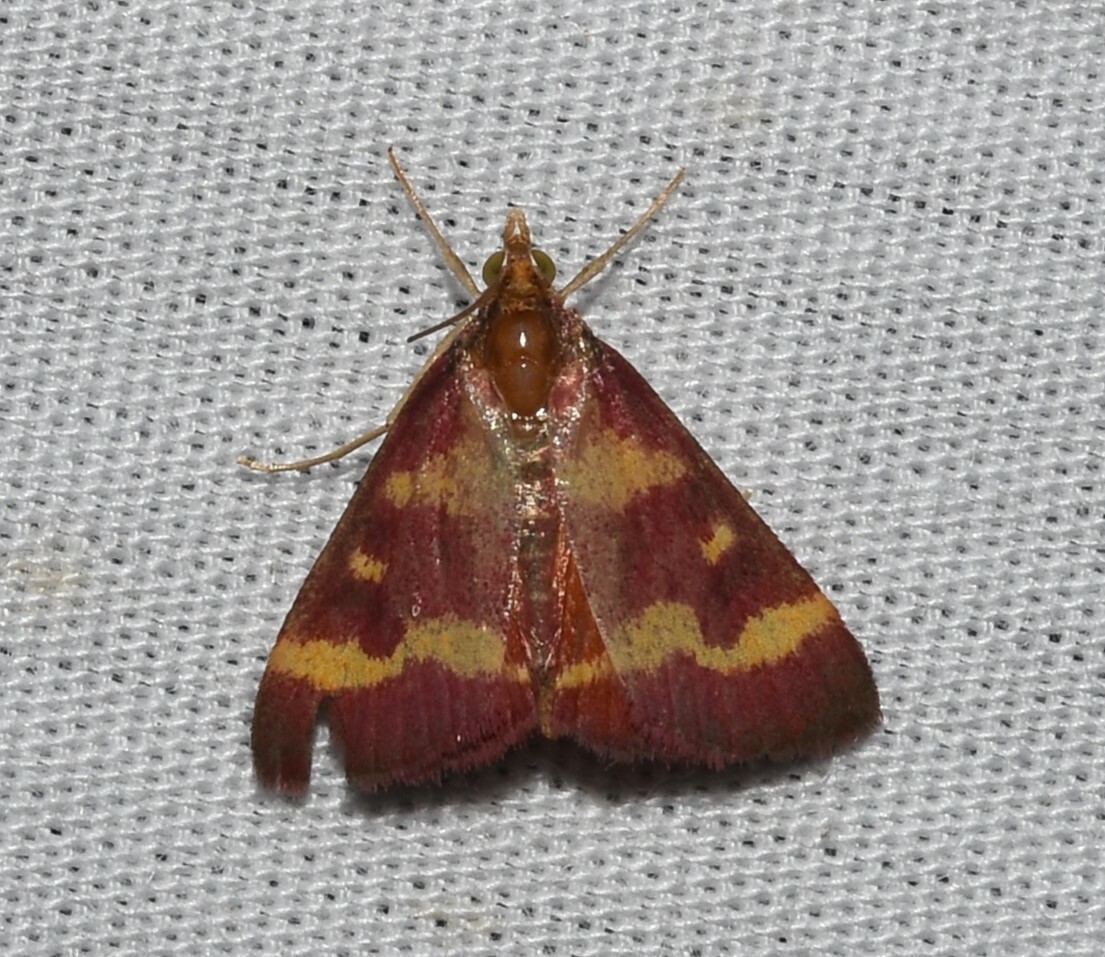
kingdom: Animalia
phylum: Arthropoda
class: Insecta
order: Lepidoptera
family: Crambidae
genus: Pyrausta
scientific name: Pyrausta tyralis
